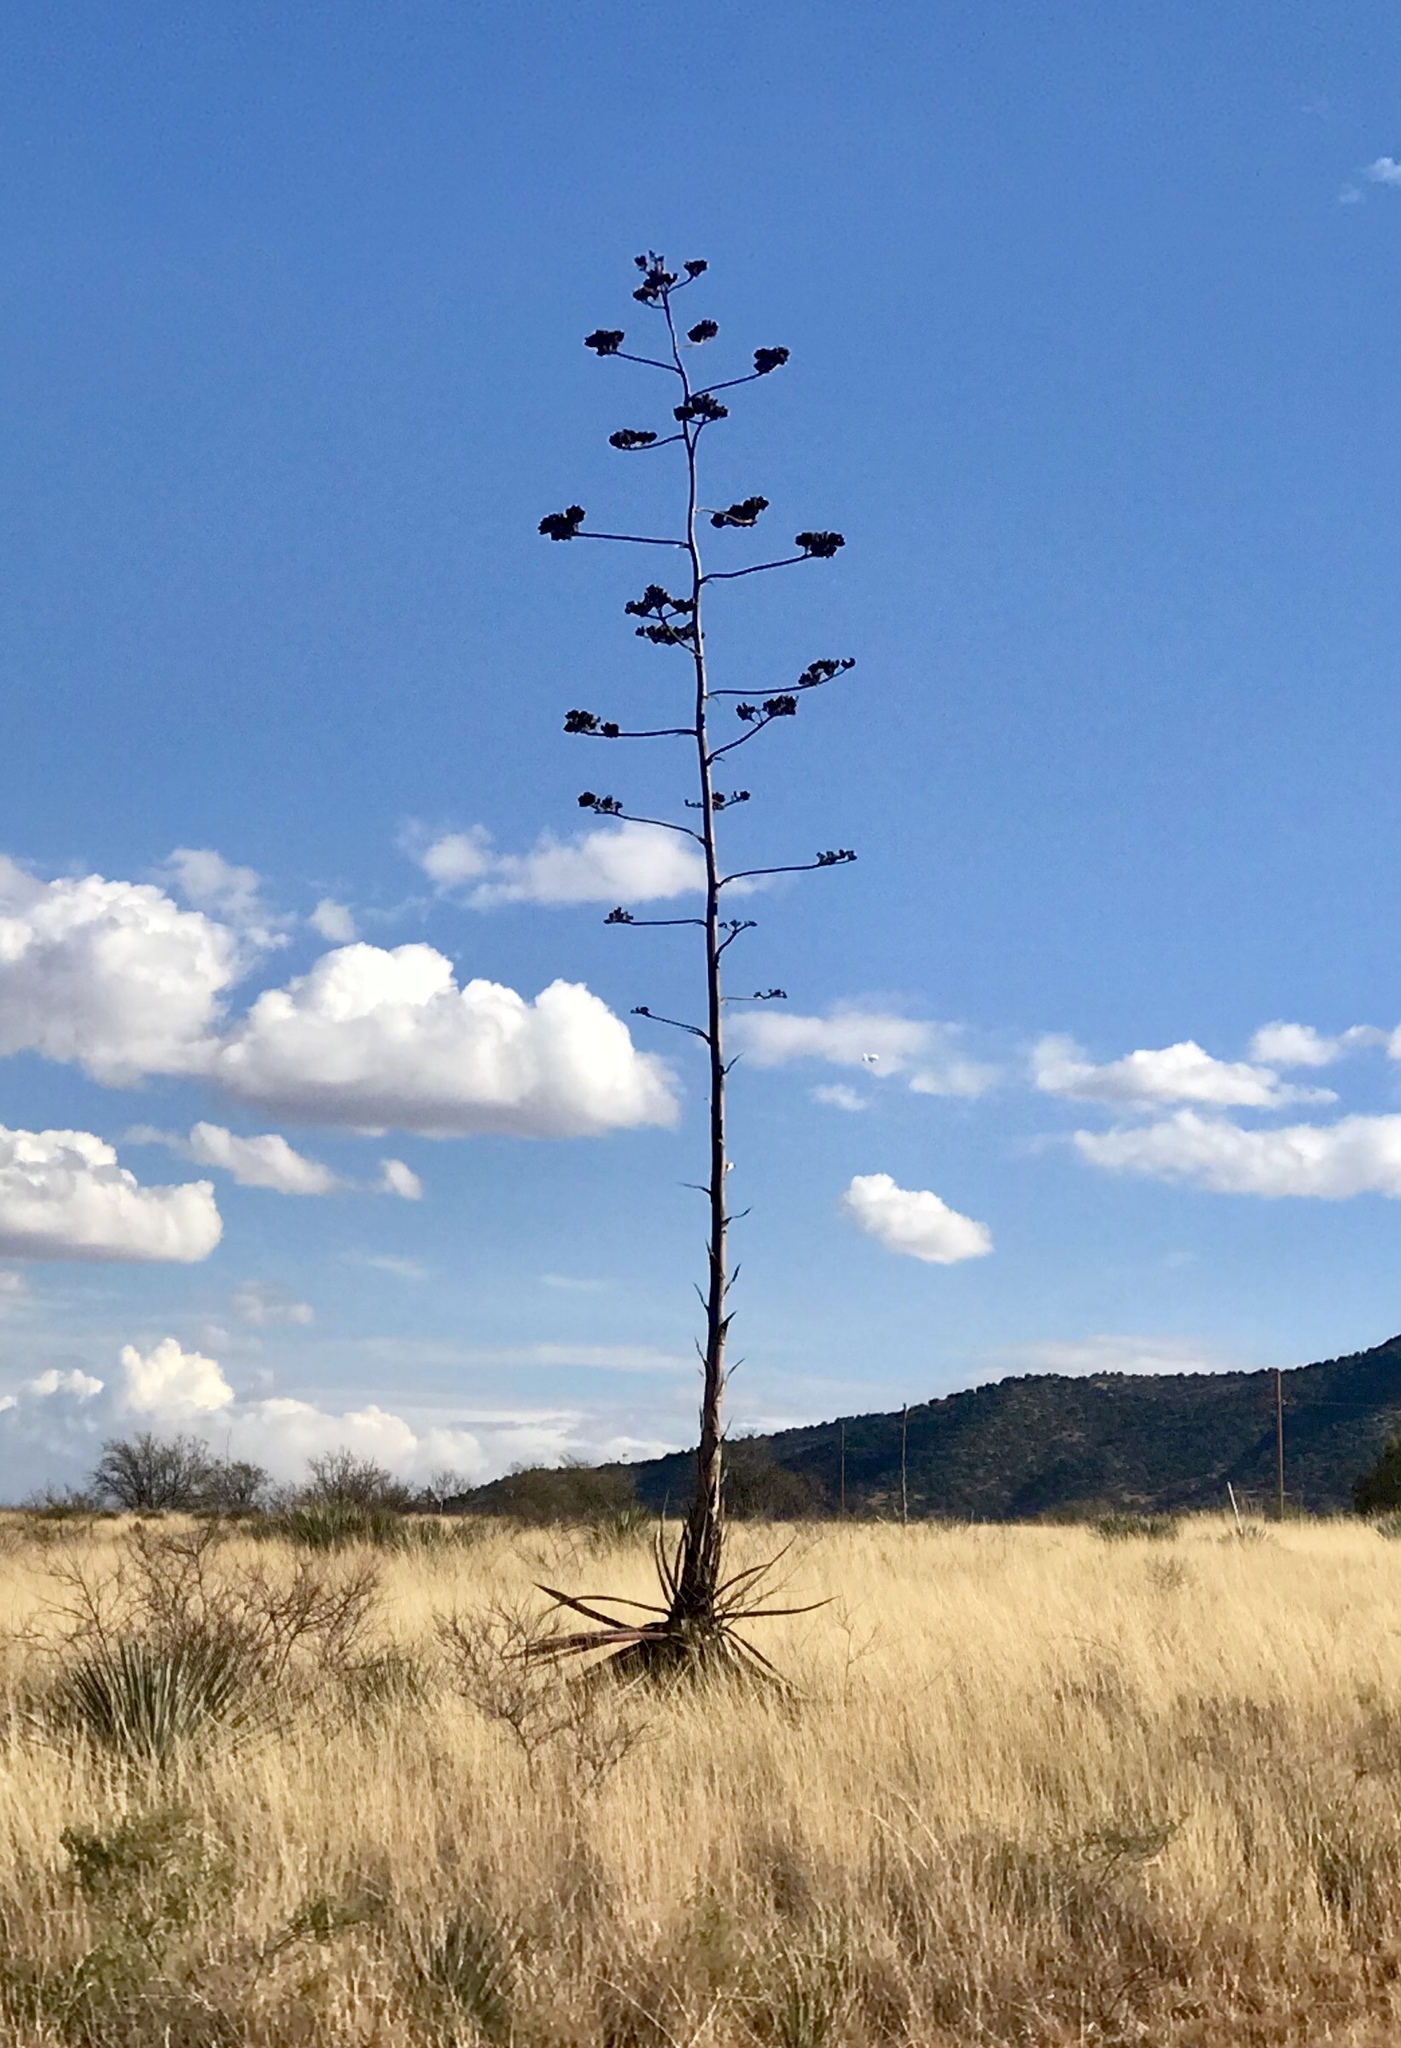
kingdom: Plantae
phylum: Tracheophyta
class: Liliopsida
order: Asparagales
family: Asparagaceae
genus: Agave
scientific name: Agave palmeri
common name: Palmer agave
